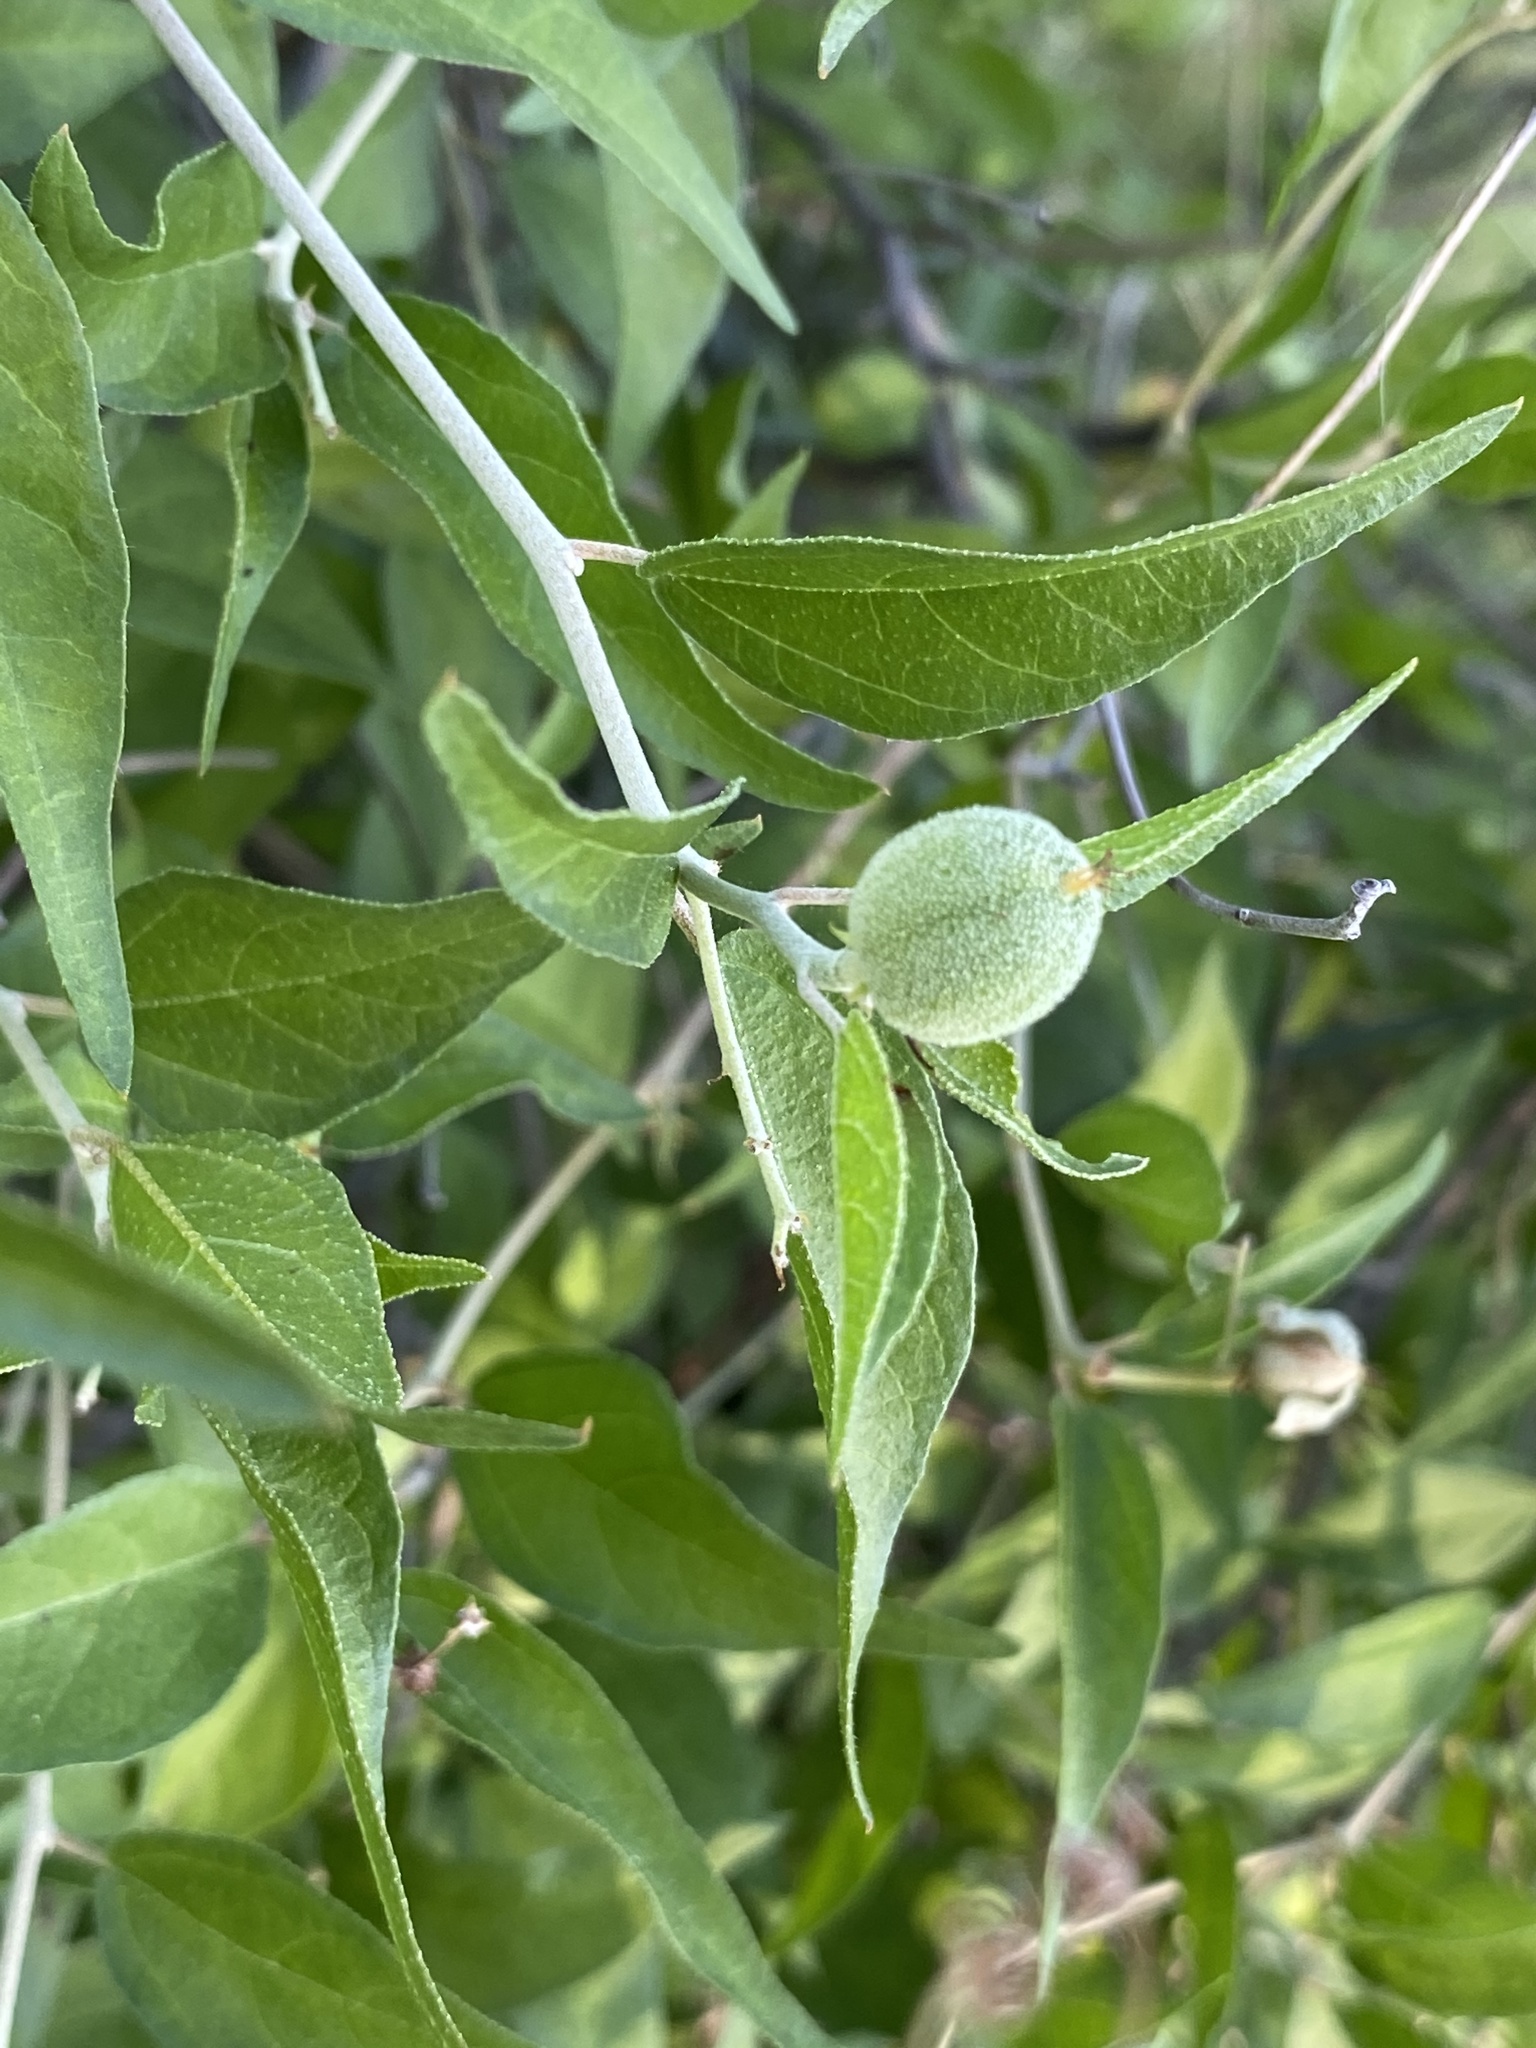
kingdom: Plantae
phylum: Tracheophyta
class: Magnoliopsida
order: Malpighiales
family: Euphorbiaceae
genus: Croton
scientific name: Croton sonorae
